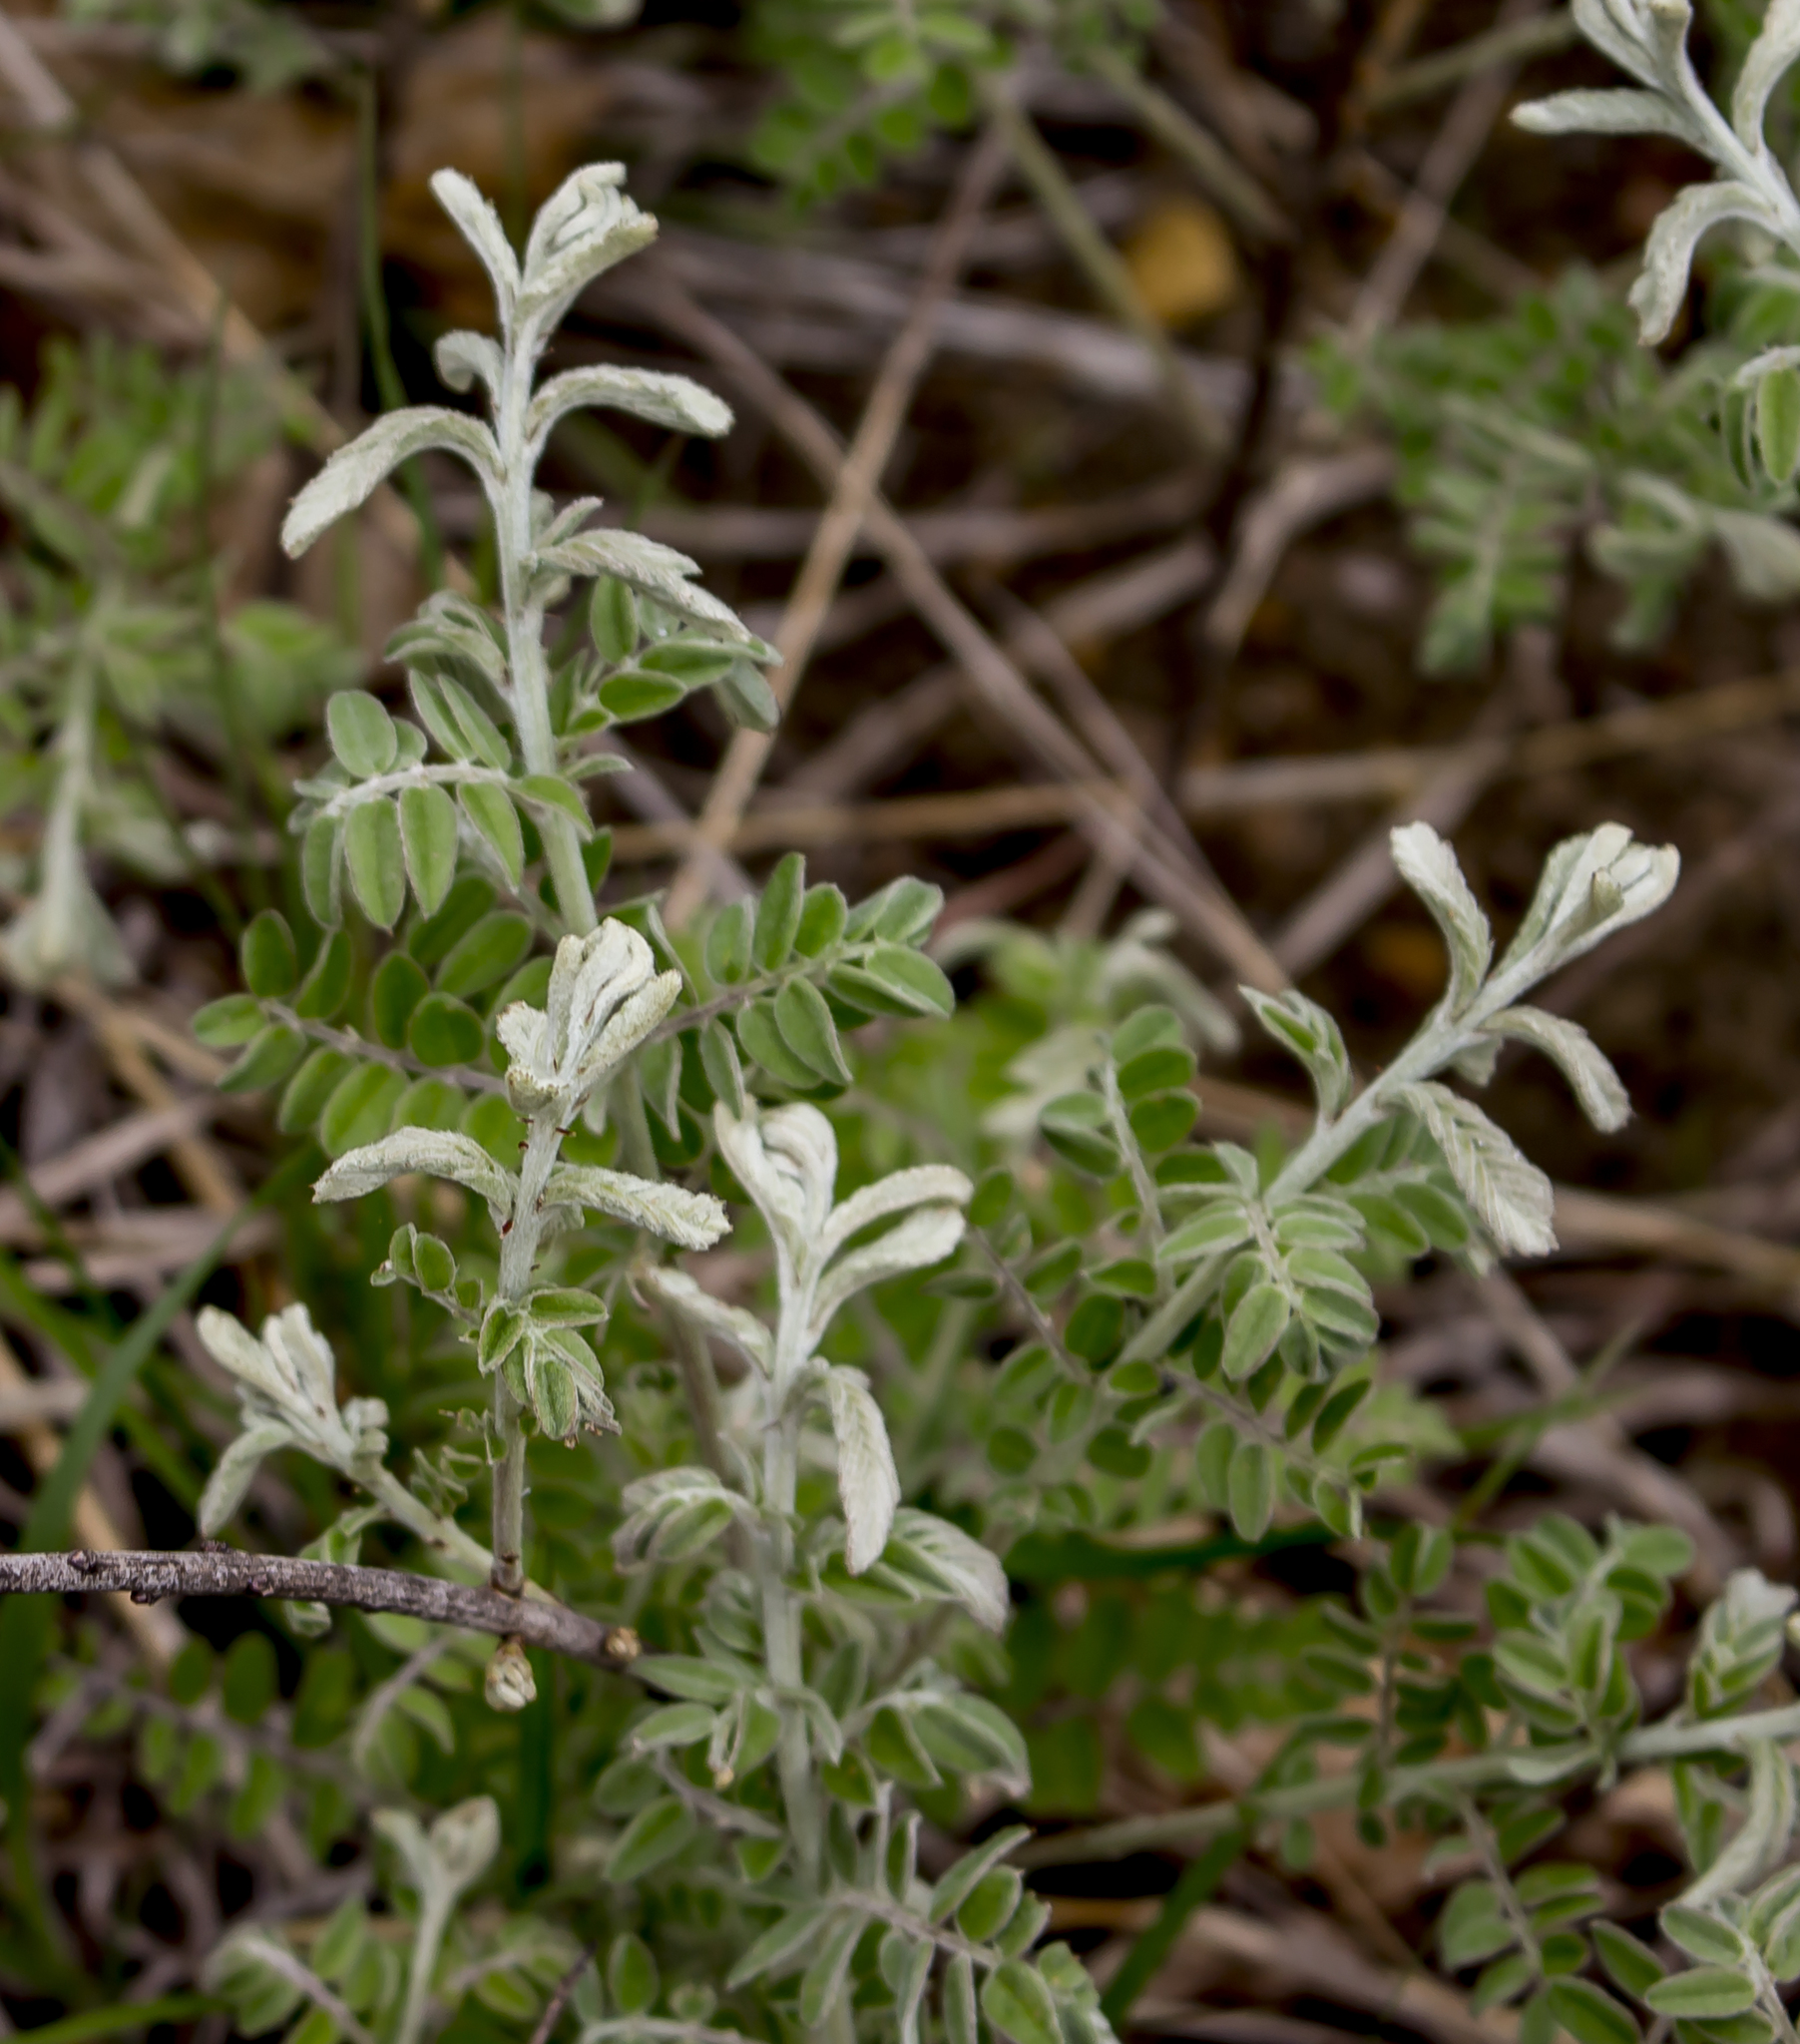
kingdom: Plantae
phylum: Tracheophyta
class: Magnoliopsida
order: Fabales
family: Fabaceae
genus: Amorpha
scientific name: Amorpha canescens
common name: Leadplant
